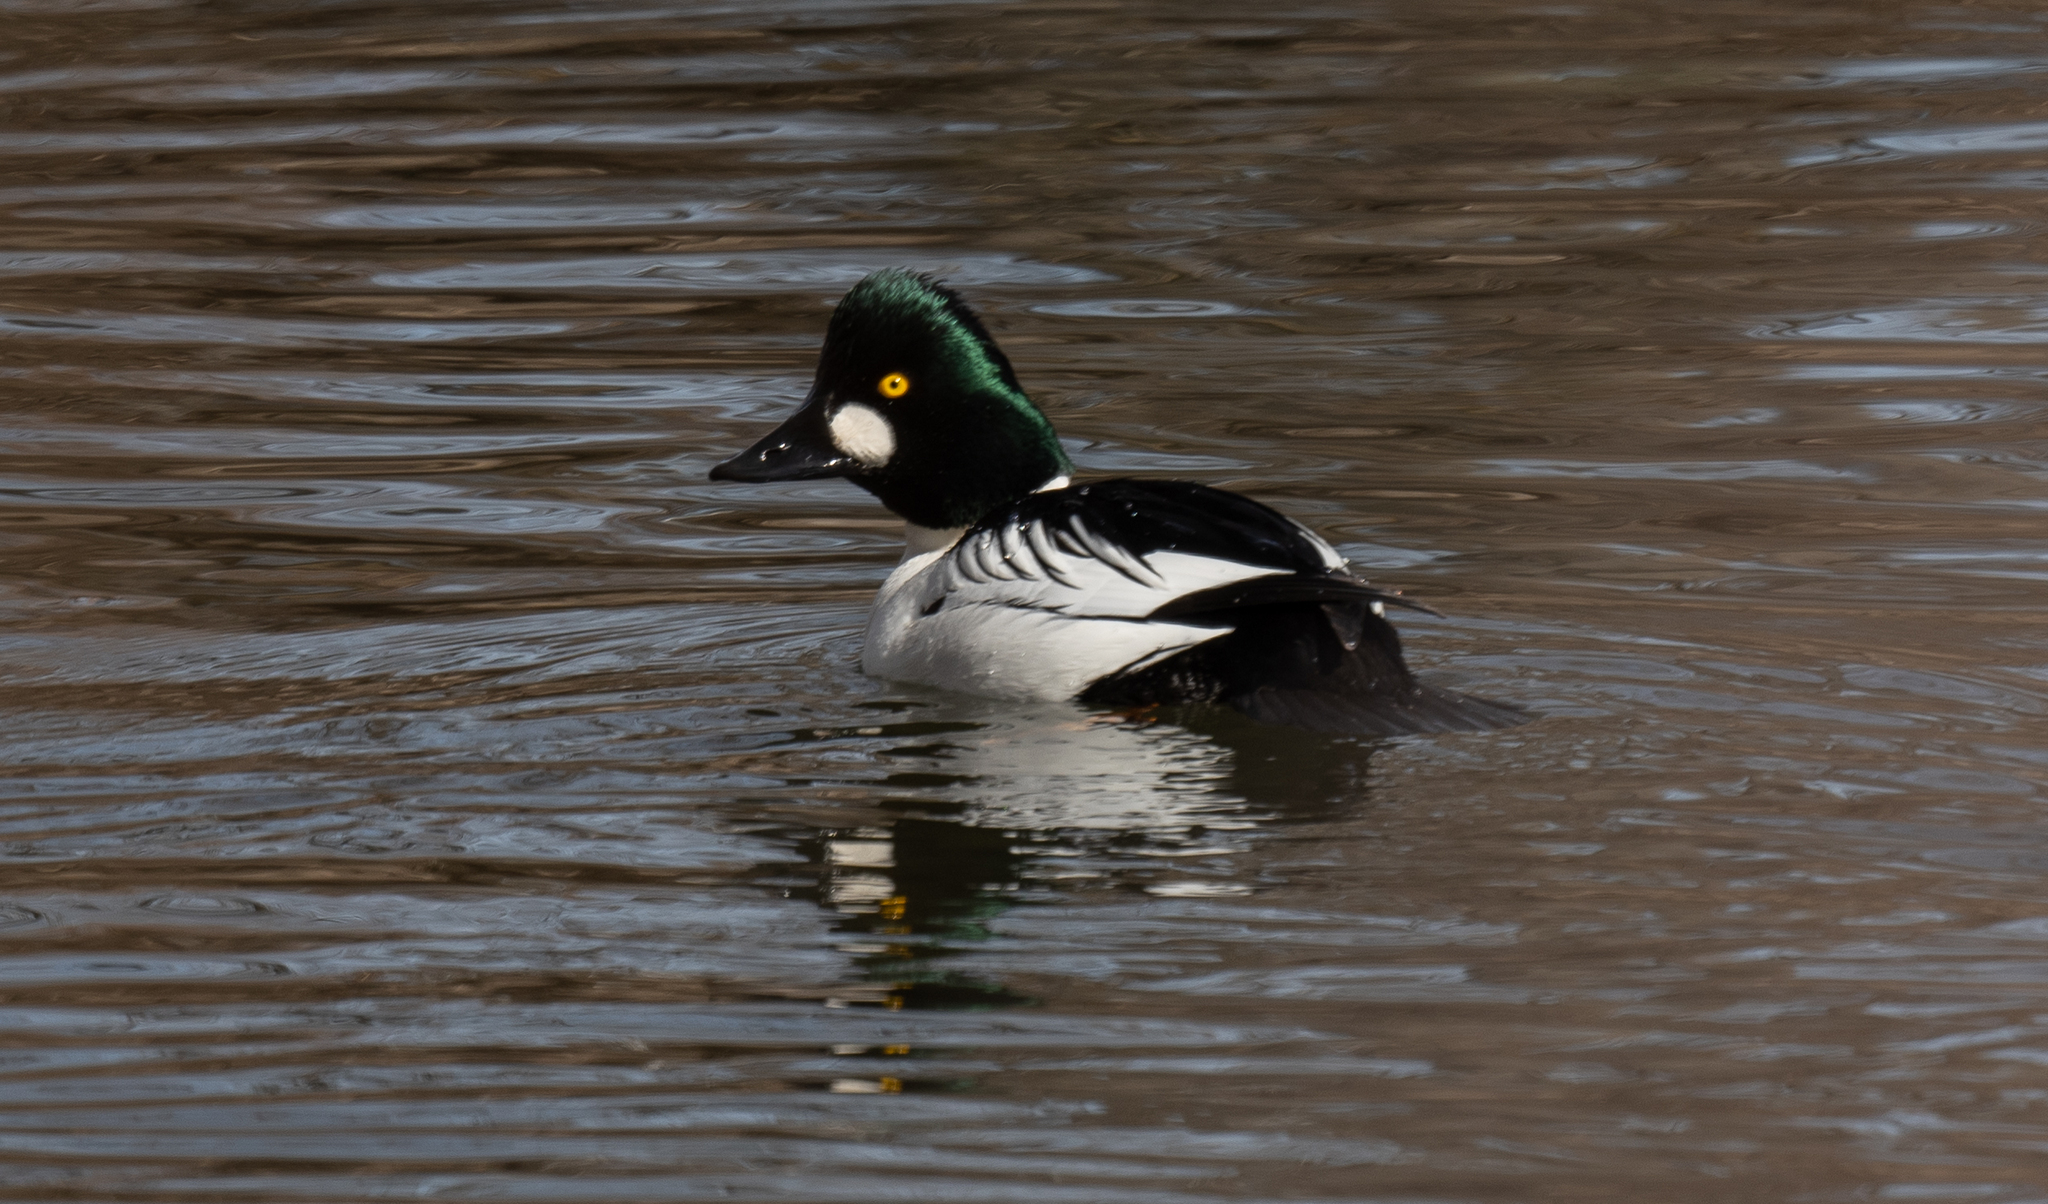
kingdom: Animalia
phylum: Chordata
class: Aves
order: Anseriformes
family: Anatidae
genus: Bucephala
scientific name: Bucephala clangula
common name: Common goldeneye
